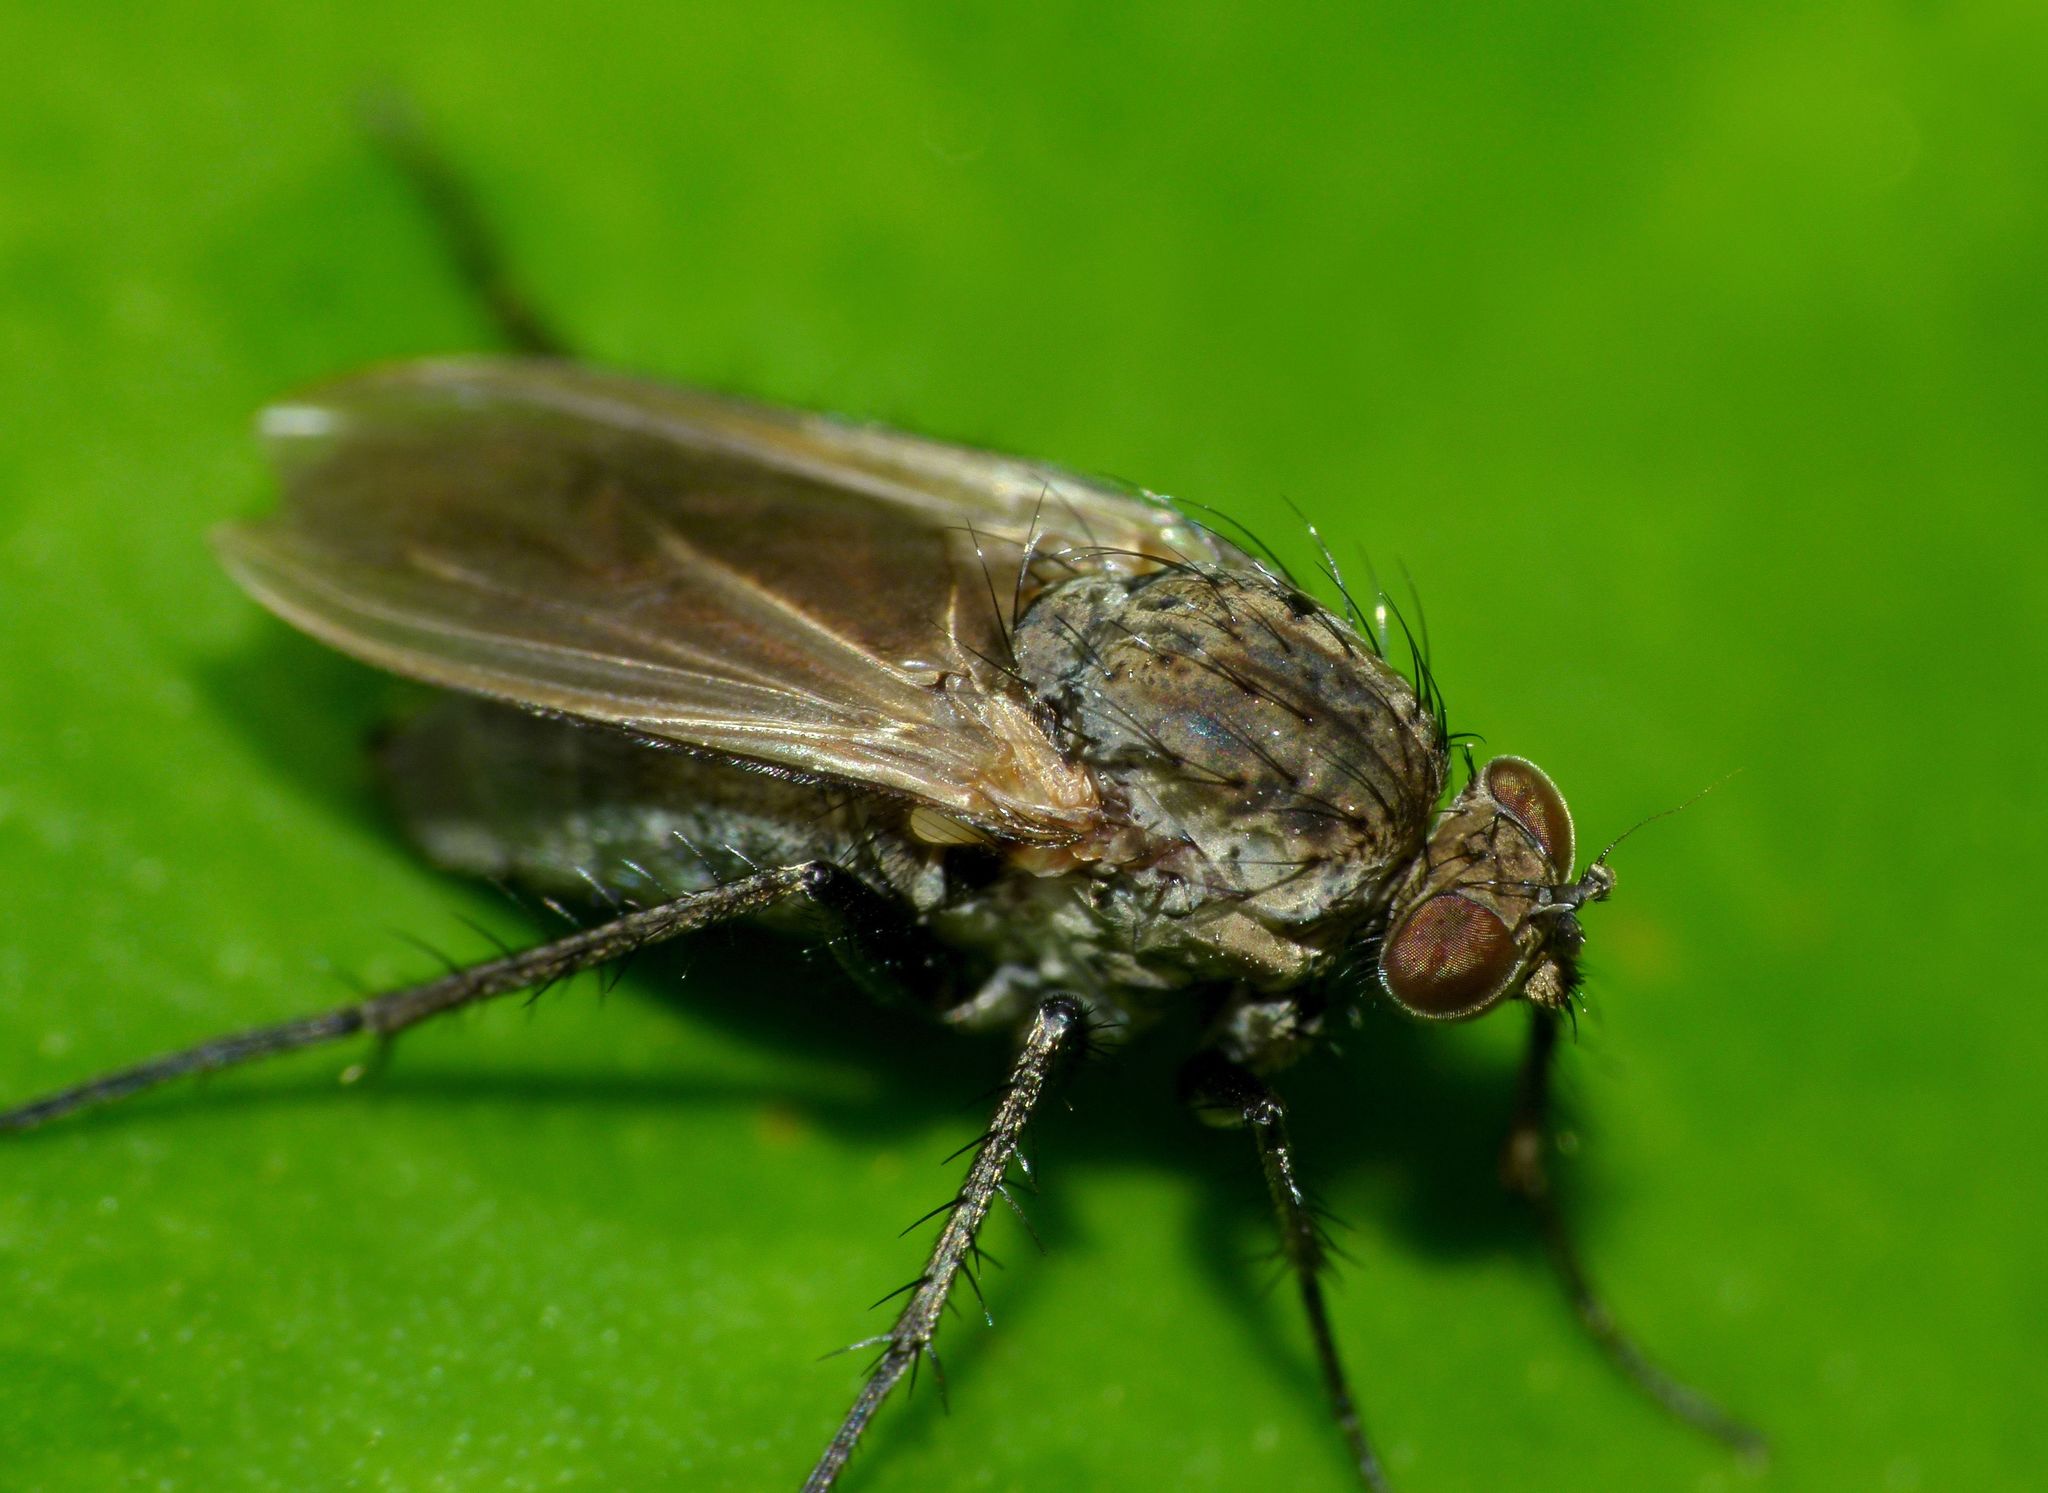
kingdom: Animalia
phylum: Arthropoda
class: Insecta
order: Diptera
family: Dolichopodidae
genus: Ostenia
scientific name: Ostenia robusta
